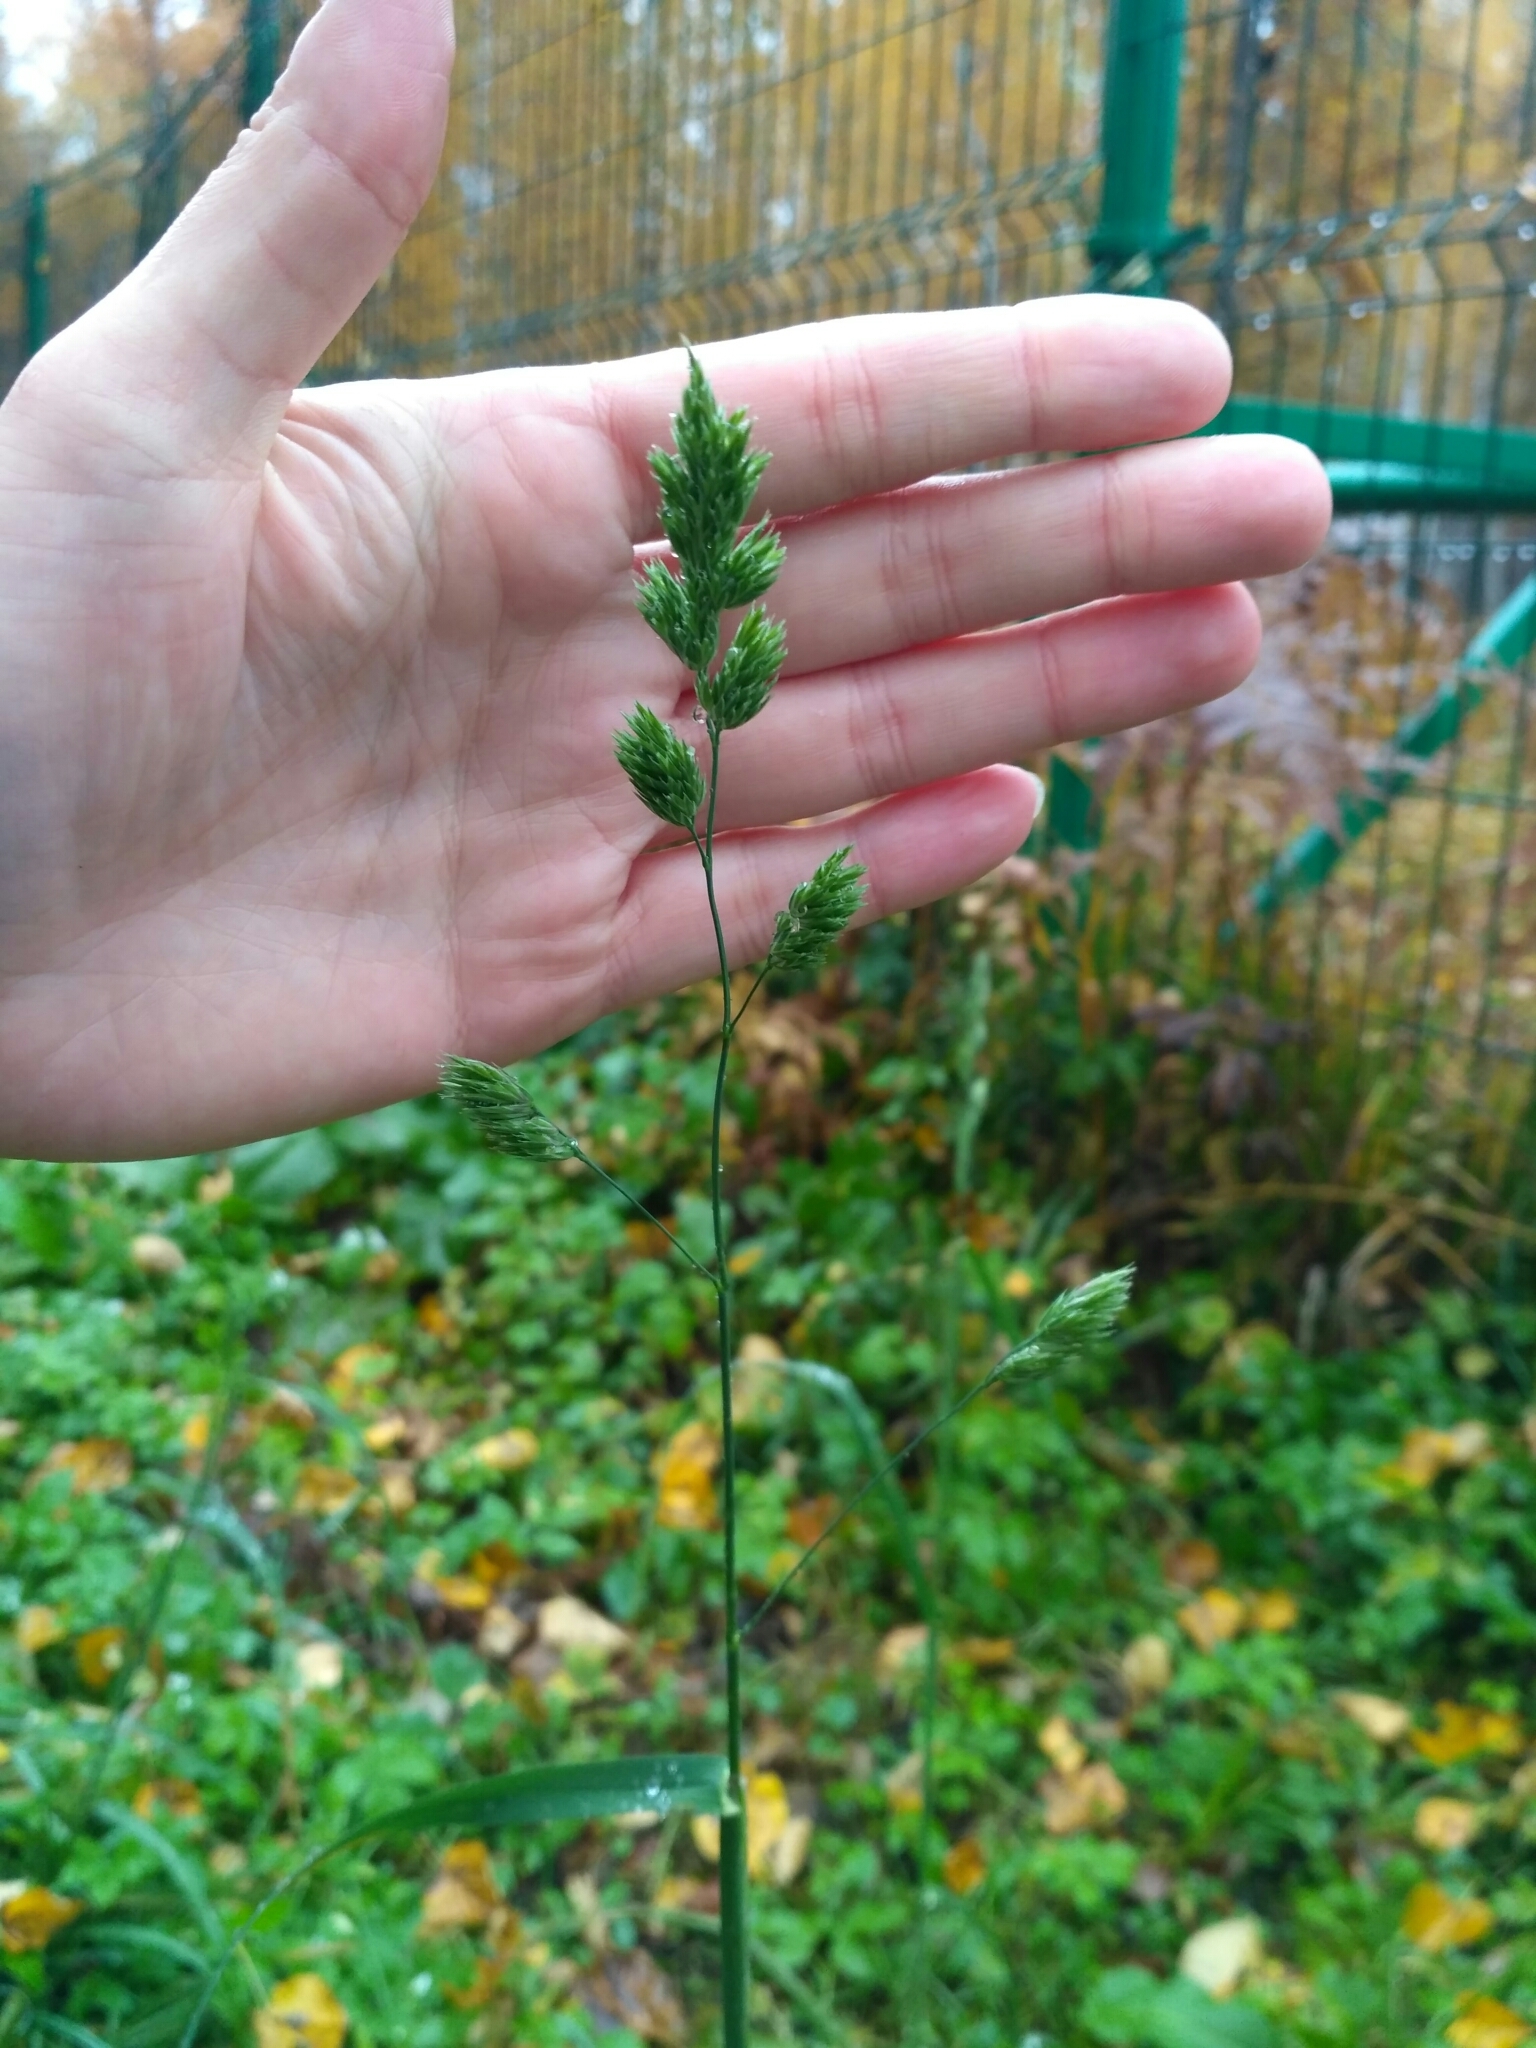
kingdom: Plantae
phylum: Tracheophyta
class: Liliopsida
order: Poales
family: Poaceae
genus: Dactylis
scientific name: Dactylis glomerata
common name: Orchardgrass
